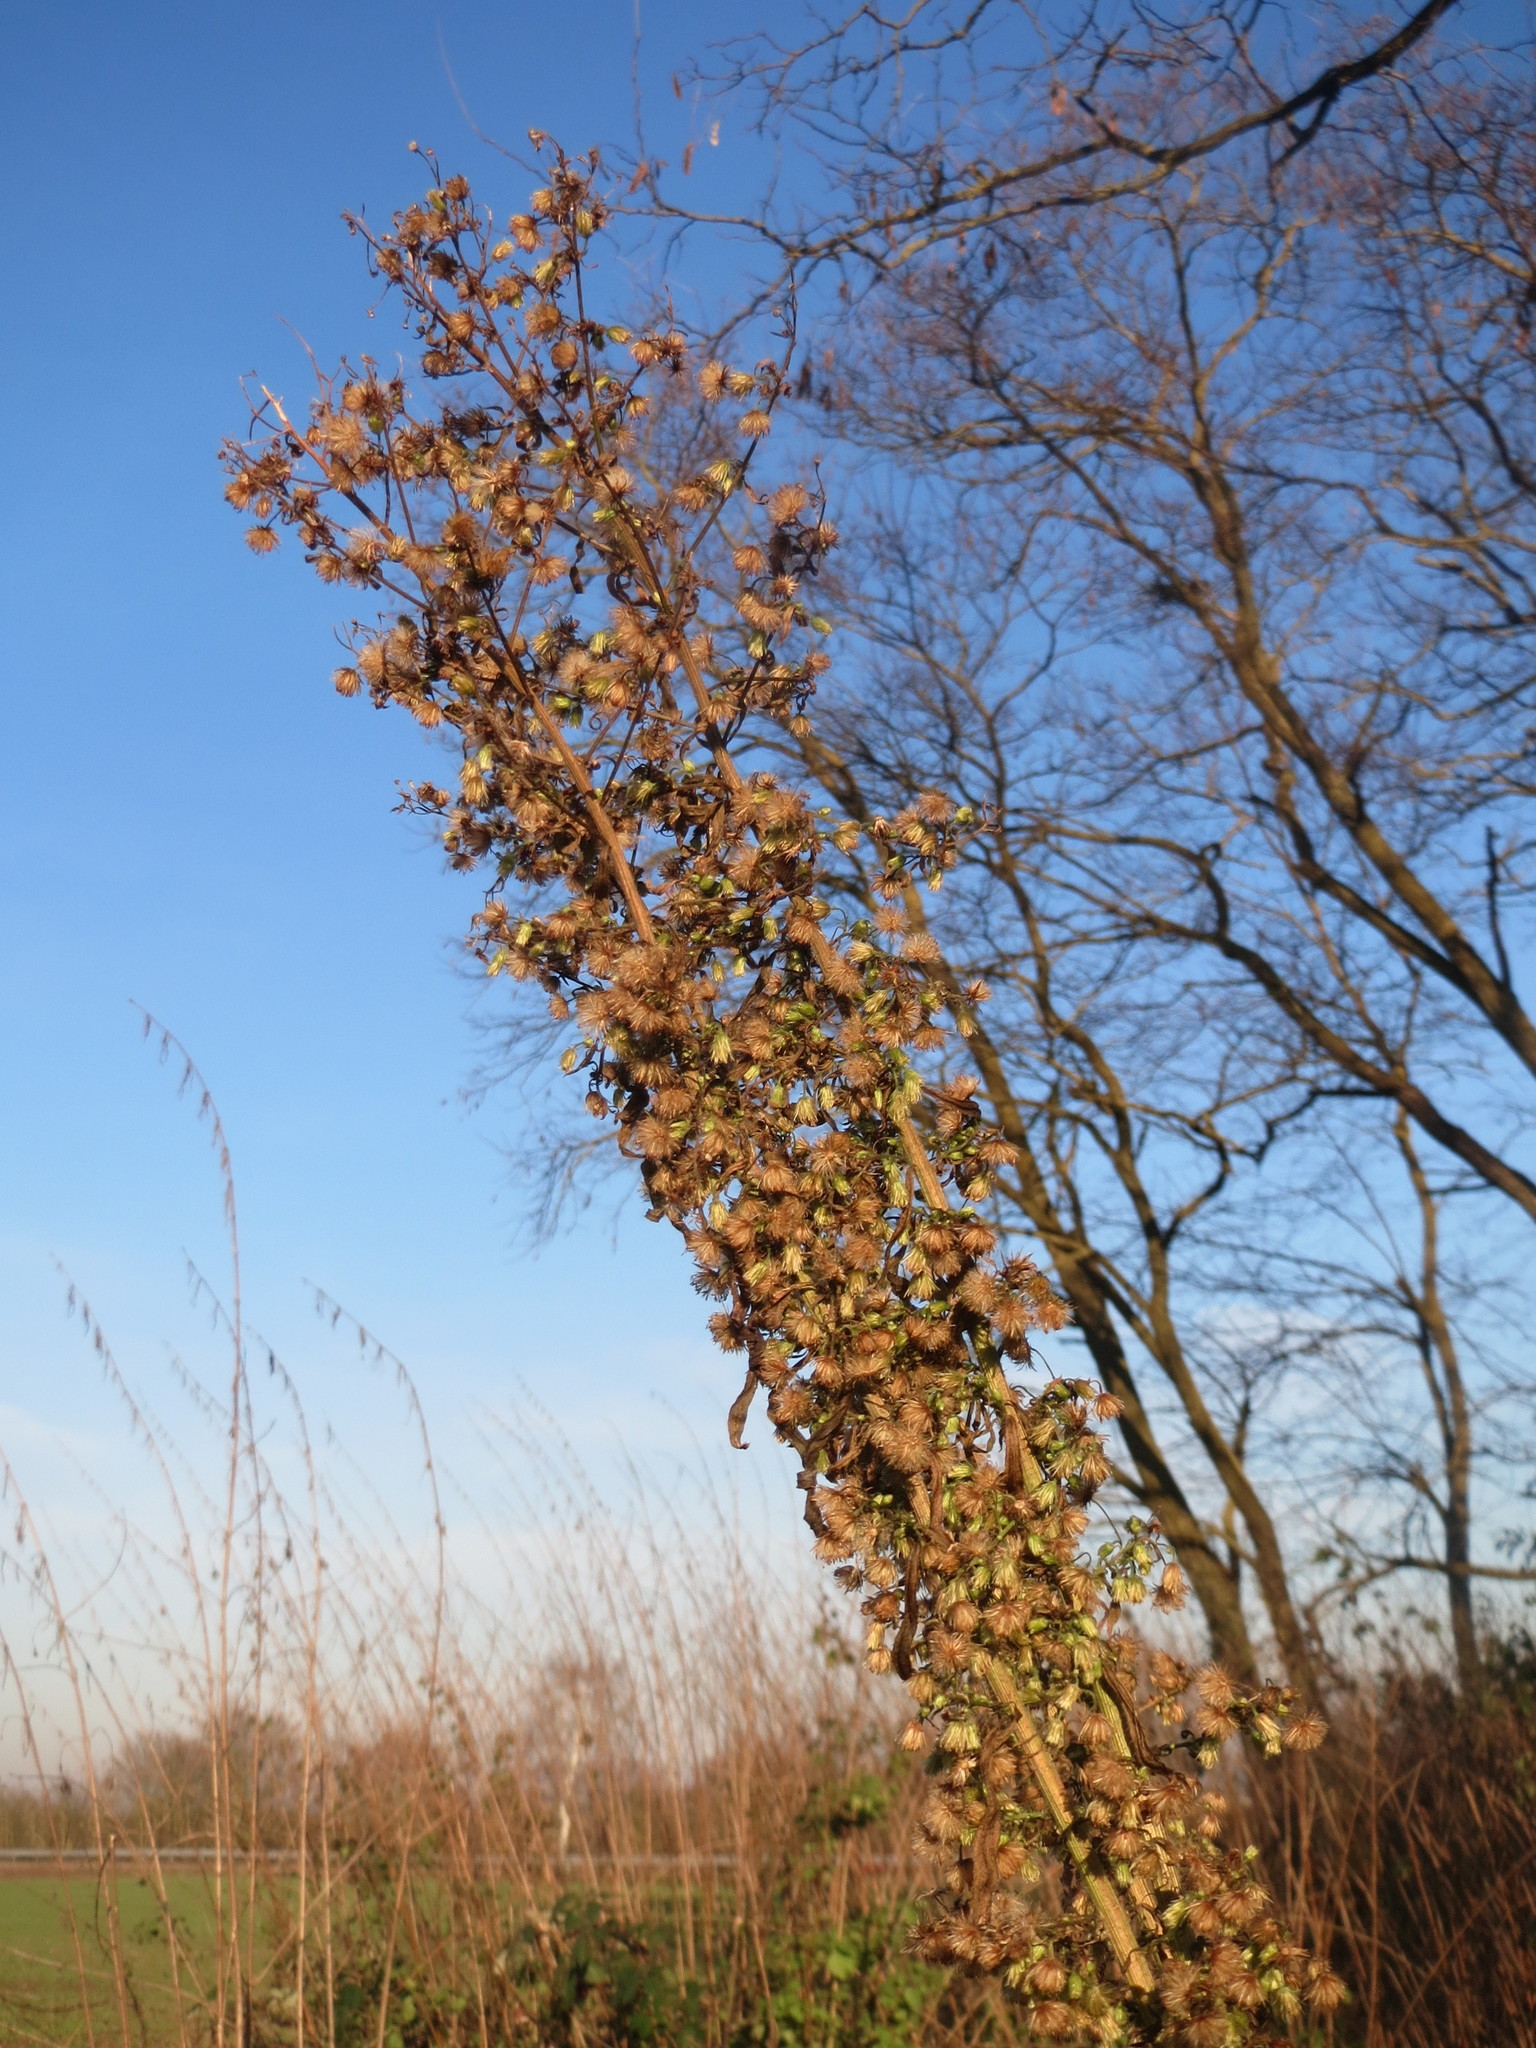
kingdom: Plantae
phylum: Tracheophyta
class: Magnoliopsida
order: Asterales
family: Asteraceae
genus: Erigeron
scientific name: Erigeron canadensis
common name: Canadian fleabane
